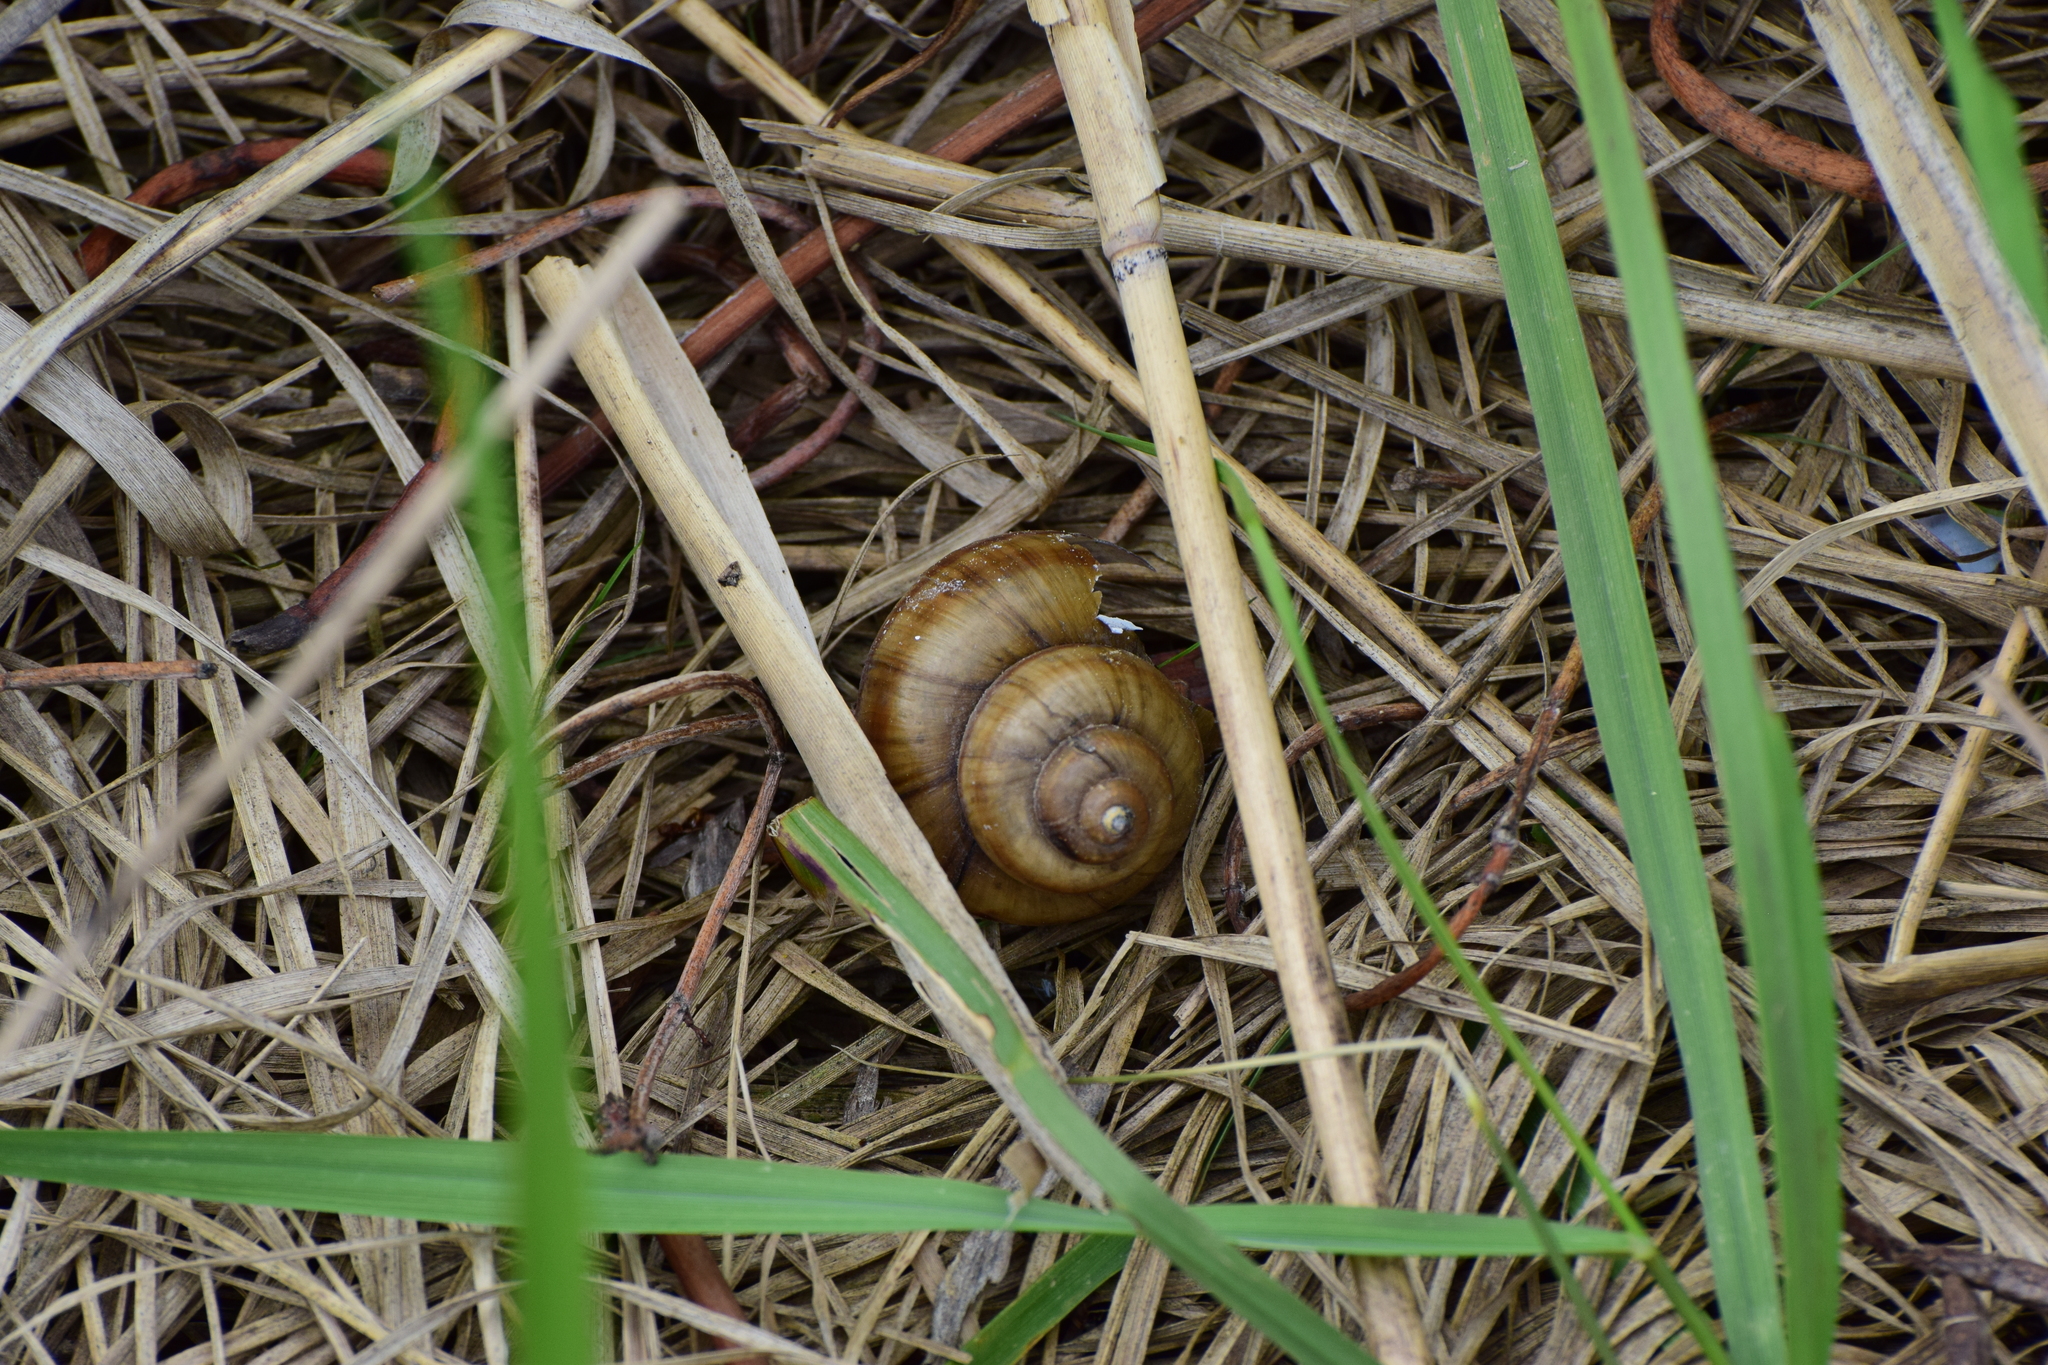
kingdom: Animalia
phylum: Mollusca
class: Gastropoda
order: Architaenioglossa
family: Viviparidae
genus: Viviparus
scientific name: Viviparus contectus
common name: Lister's river snail
